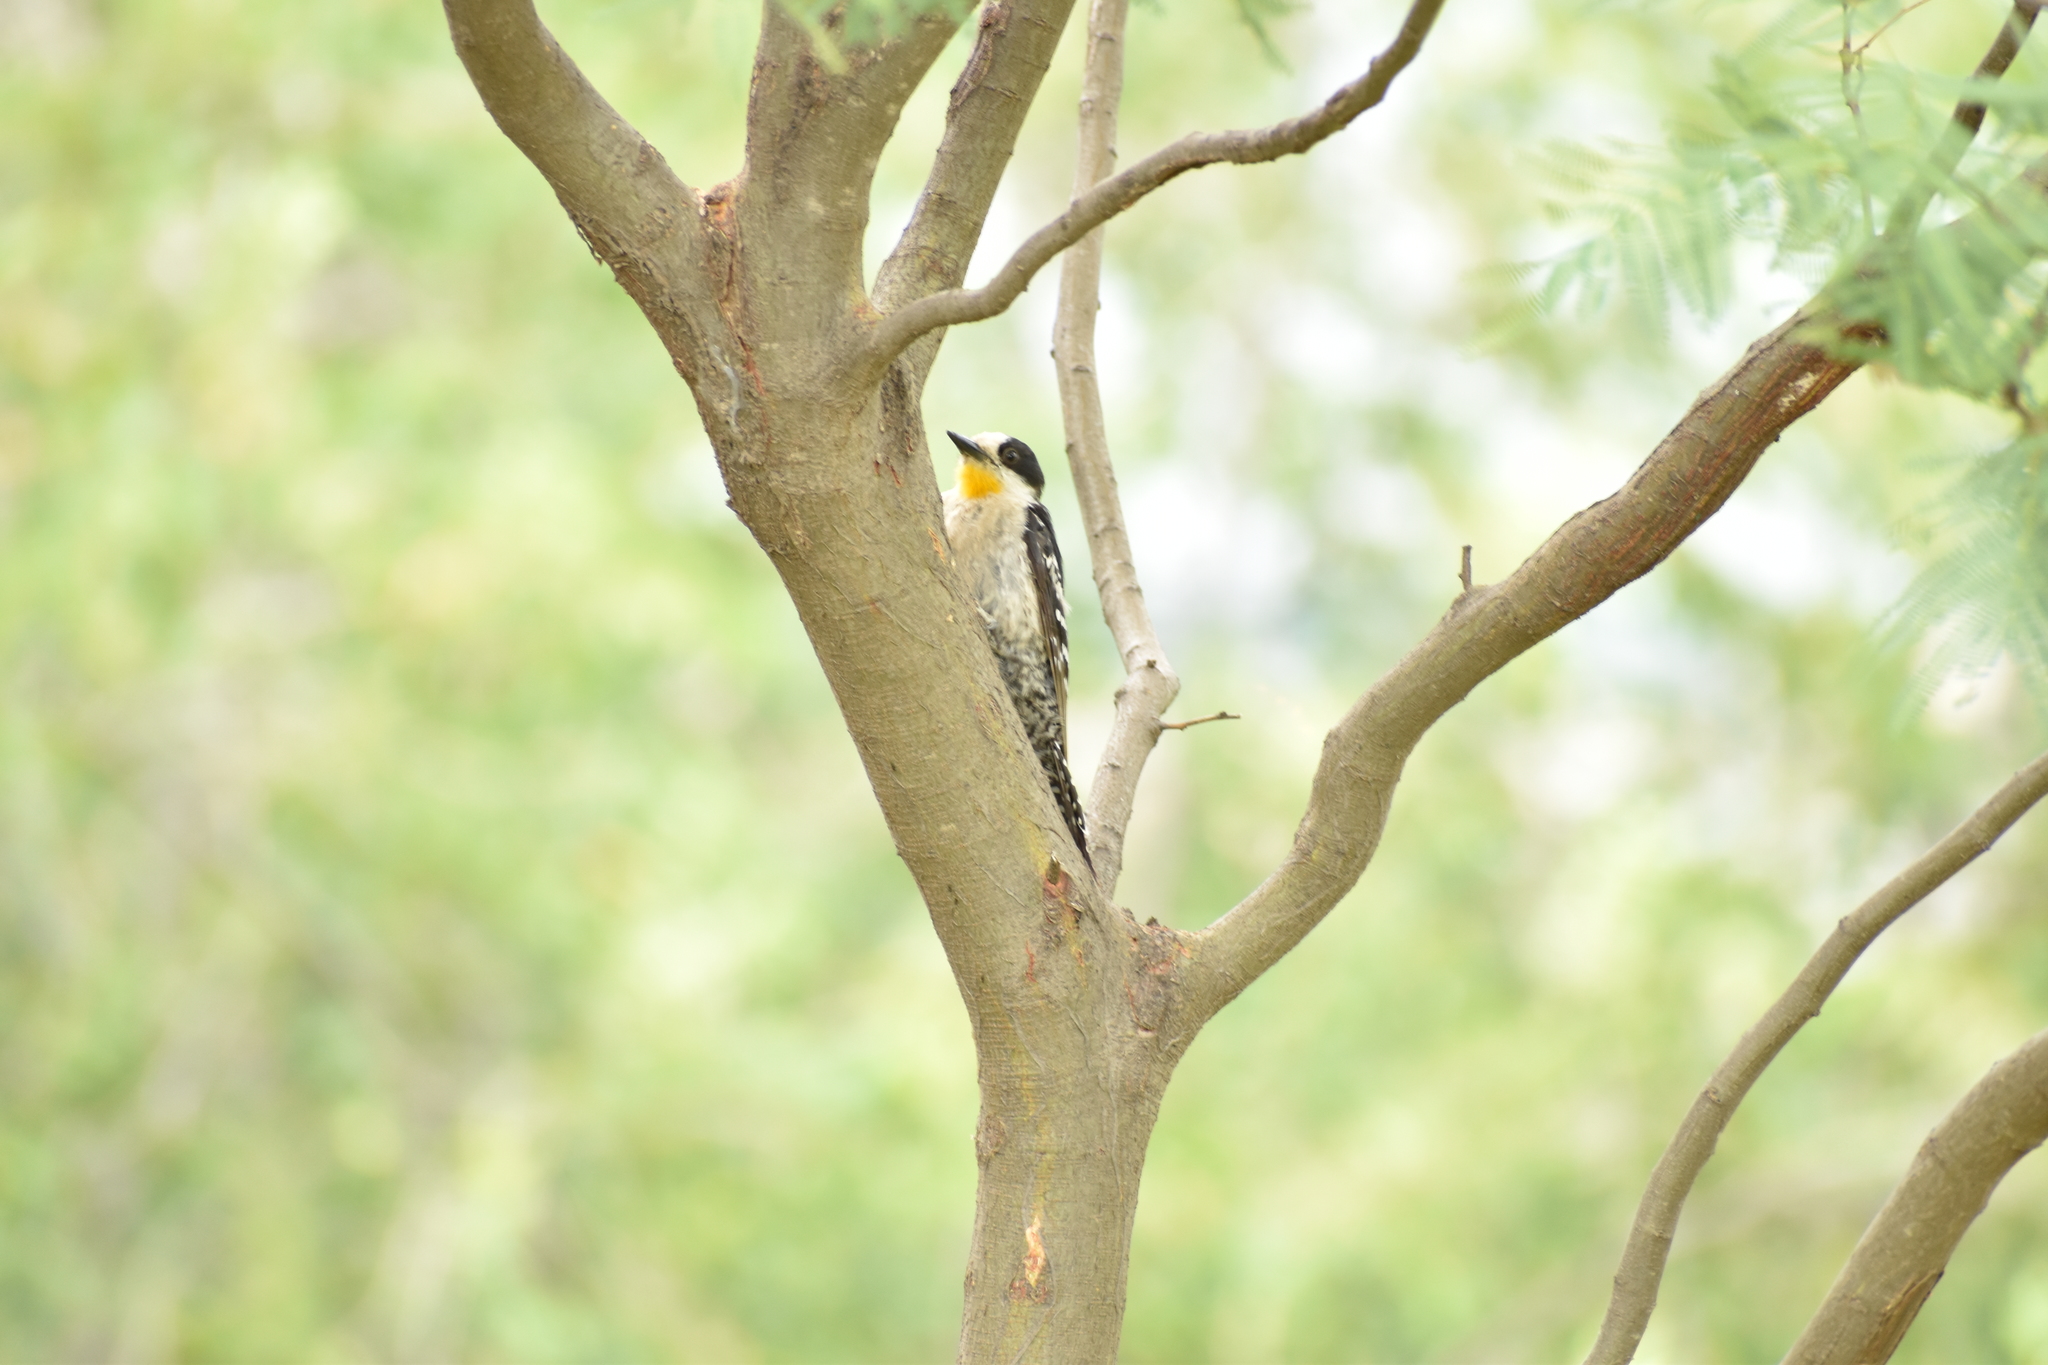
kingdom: Animalia
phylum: Chordata
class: Aves
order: Piciformes
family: Picidae
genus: Melanerpes
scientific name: Melanerpes cactorum
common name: White-fronted woodpecker
